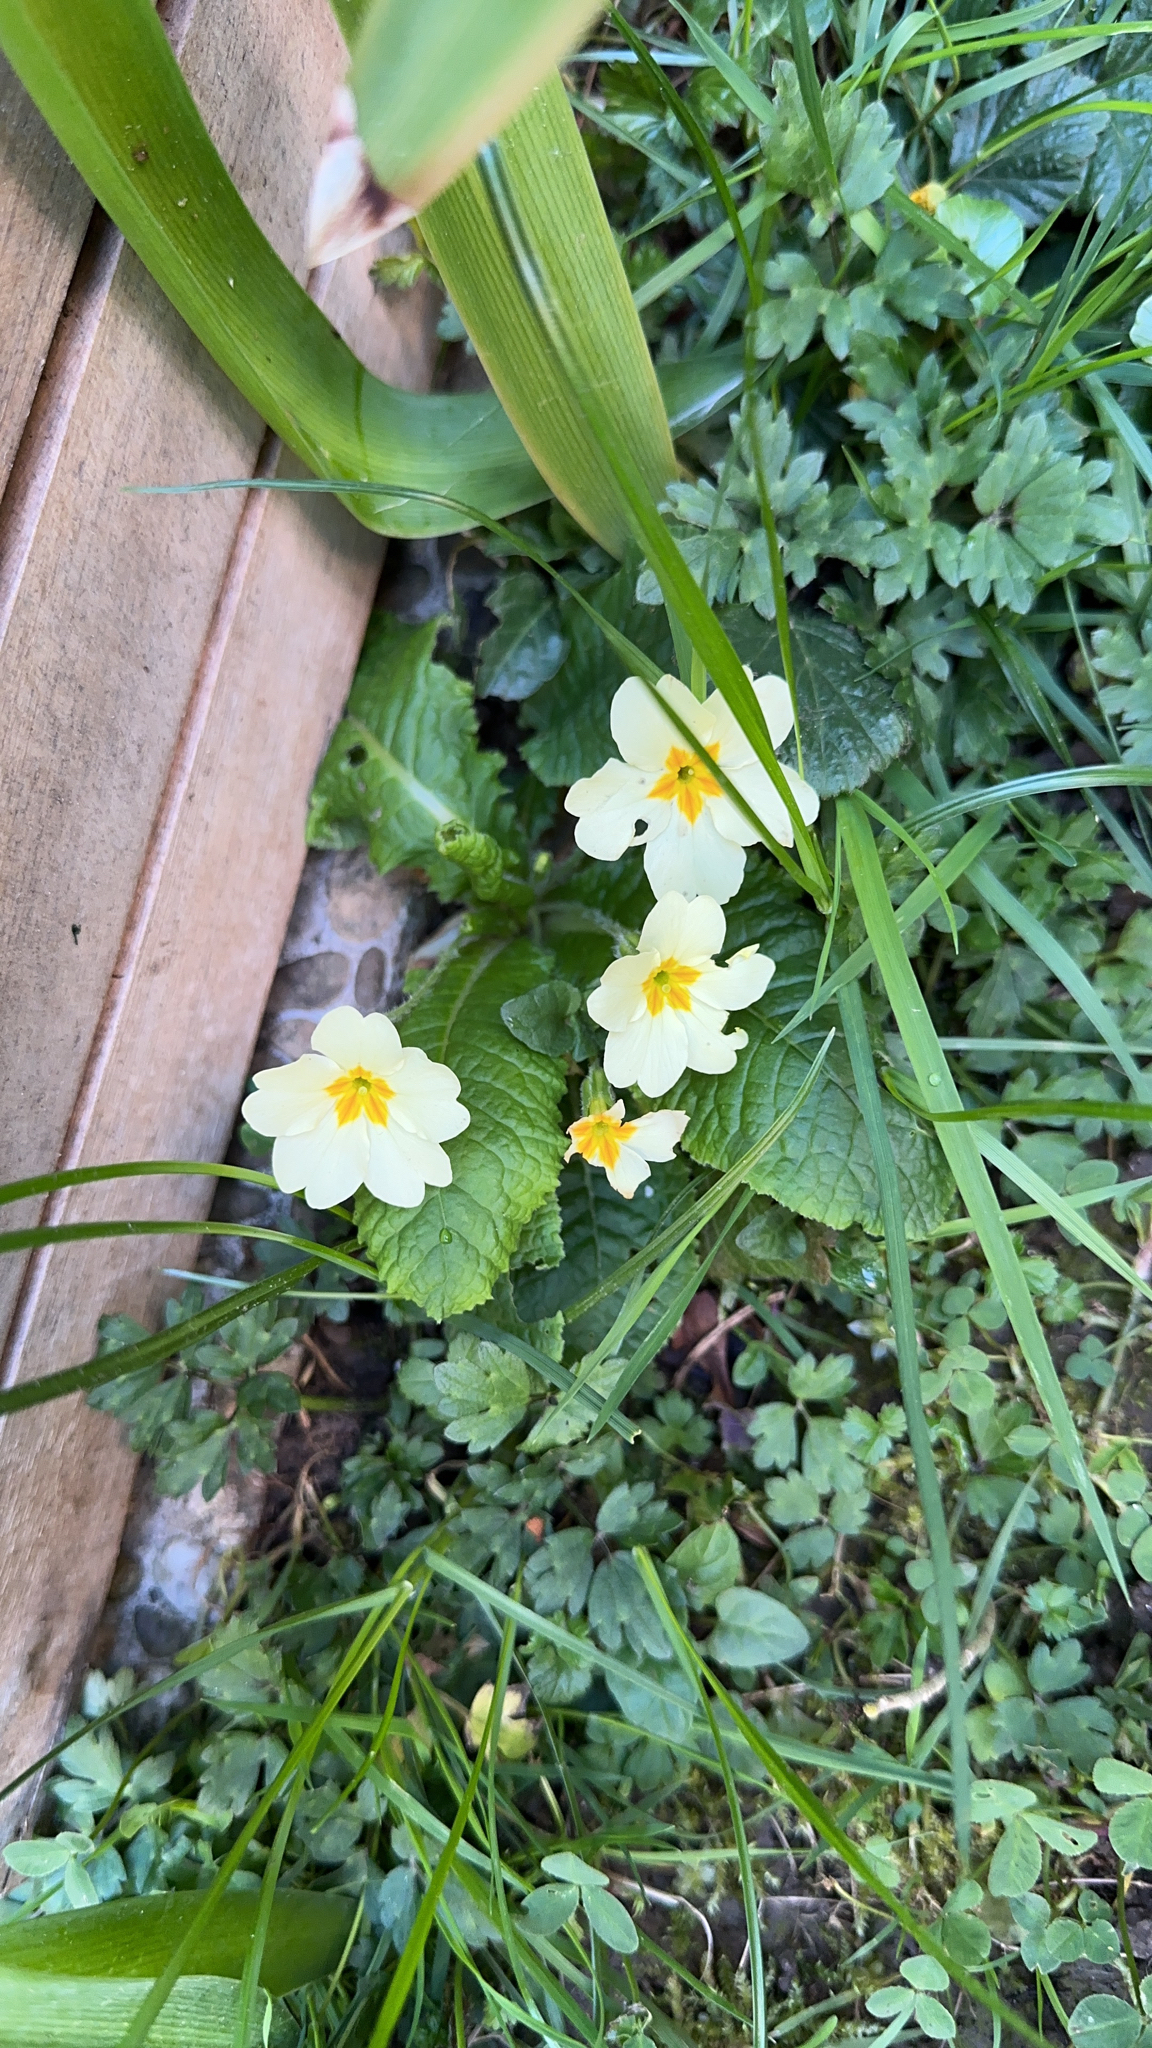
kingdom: Plantae
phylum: Tracheophyta
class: Magnoliopsida
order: Ericales
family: Primulaceae
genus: Primula
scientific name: Primula vulgaris
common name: Primrose
